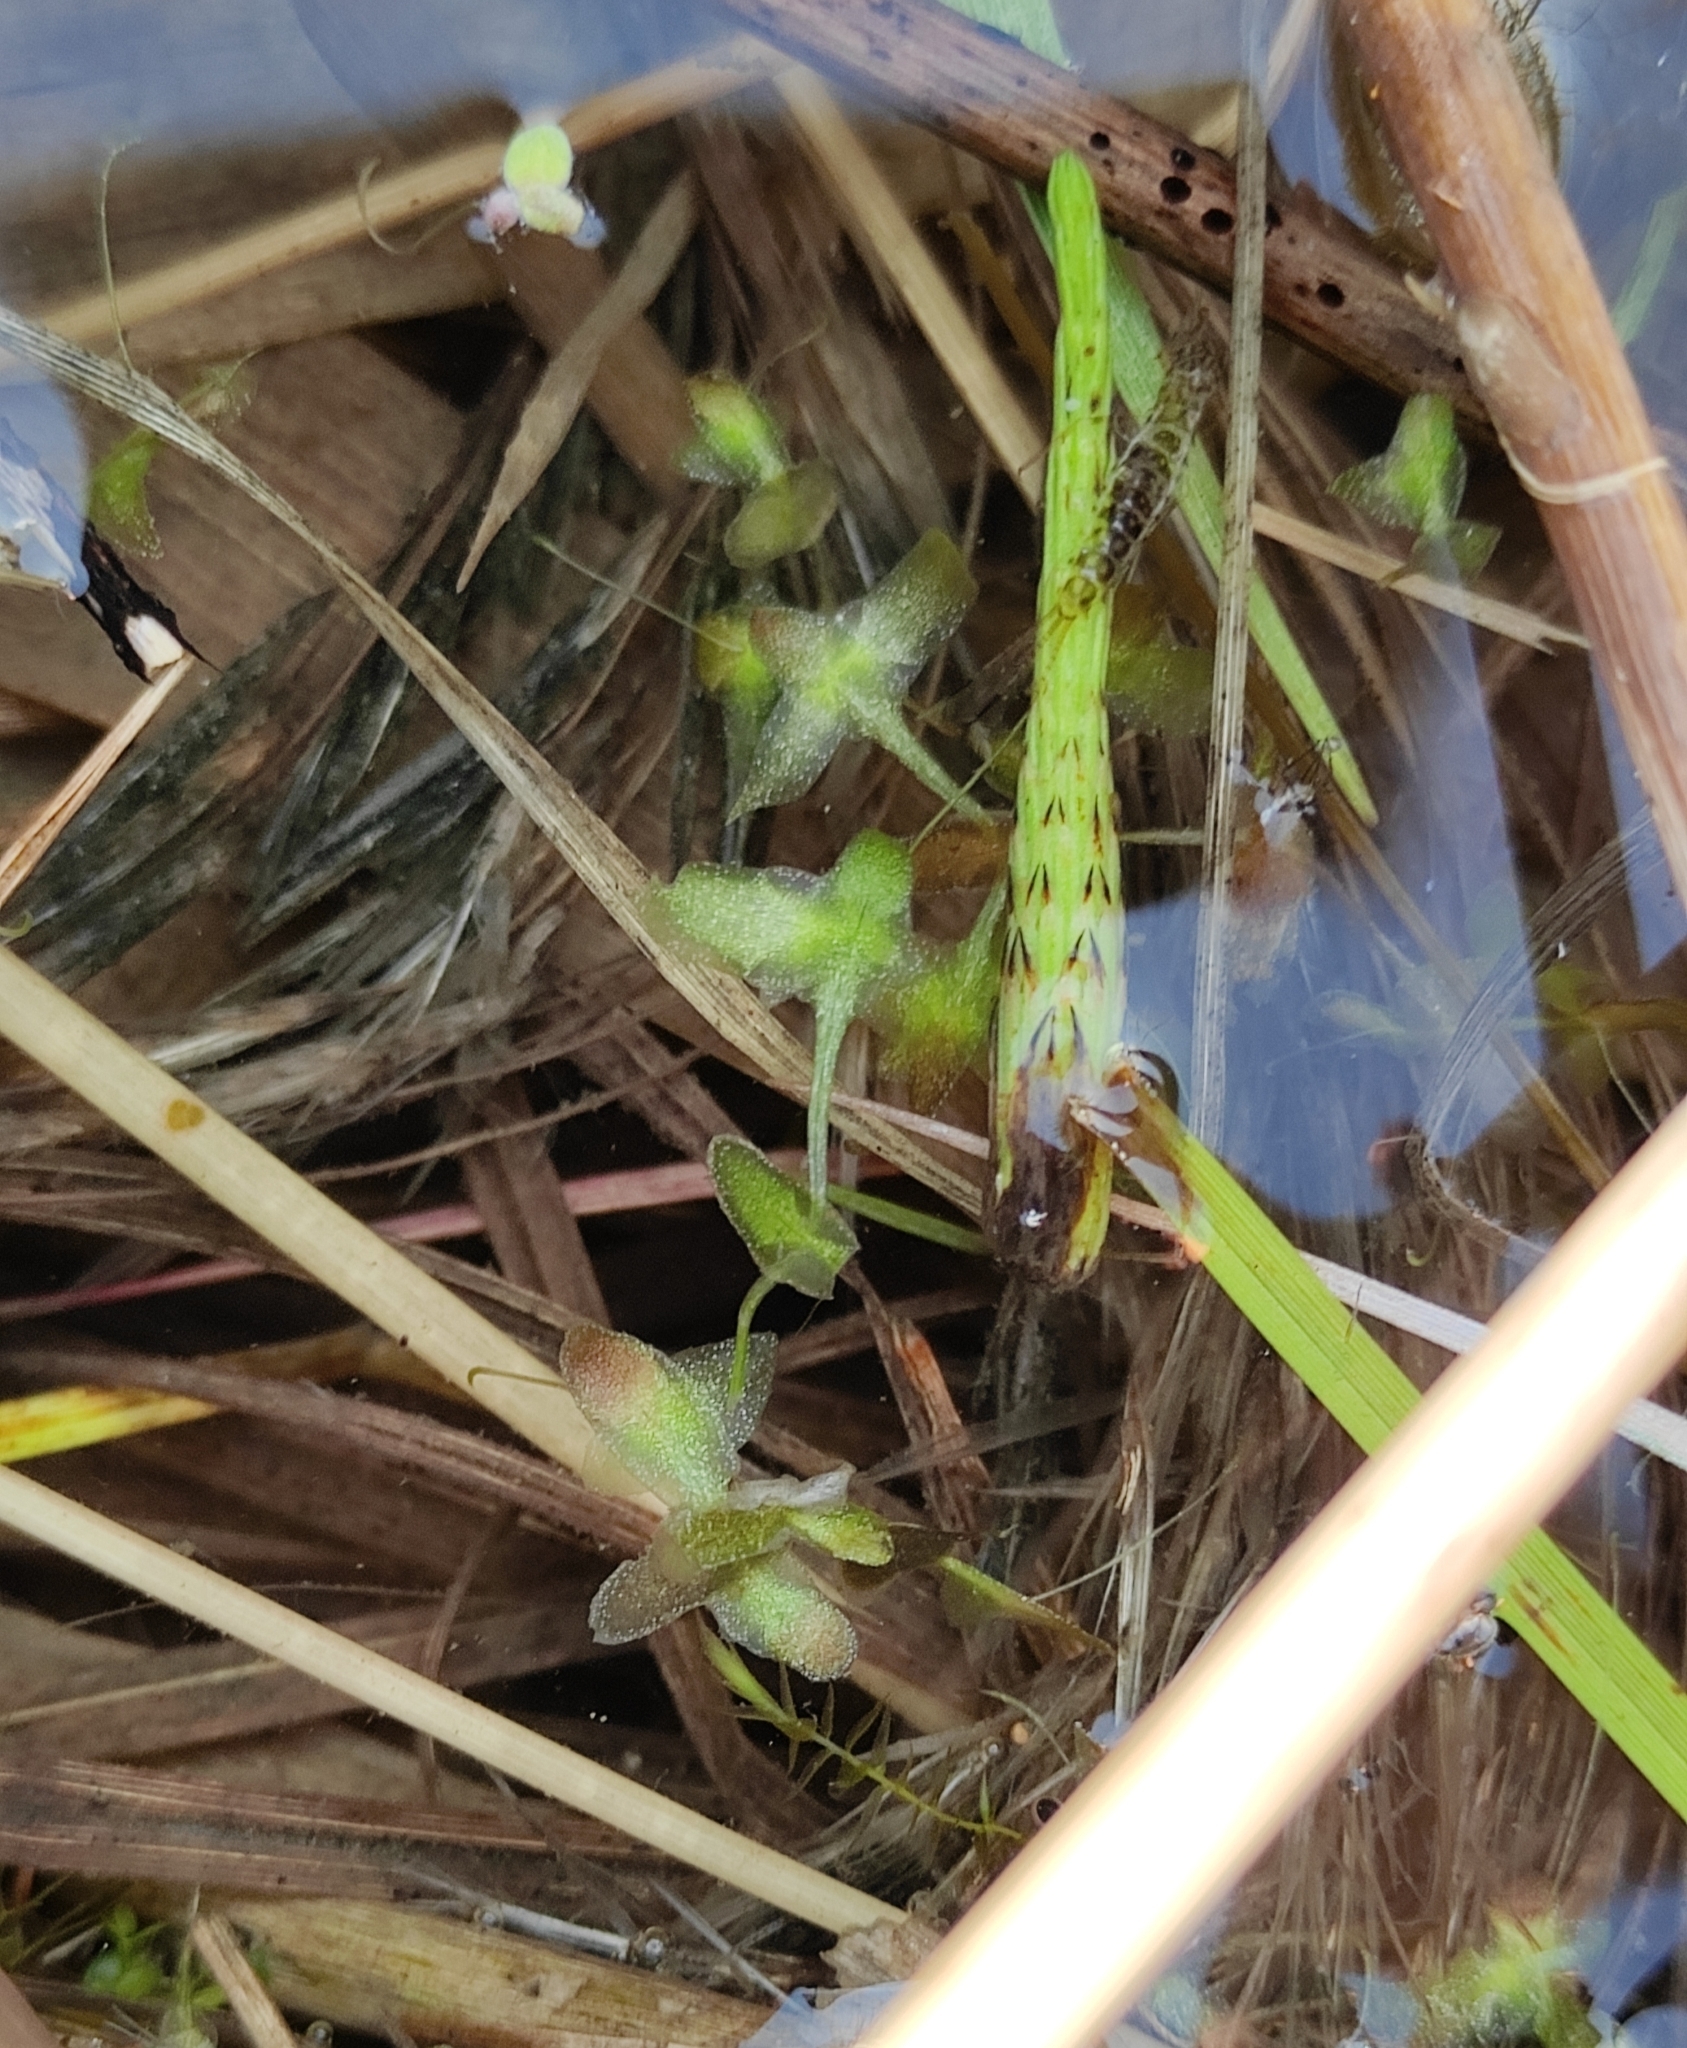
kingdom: Plantae
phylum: Tracheophyta
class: Liliopsida
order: Alismatales
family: Araceae
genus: Lemna
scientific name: Lemna trisulca
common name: Ivy-leaved duckweed
